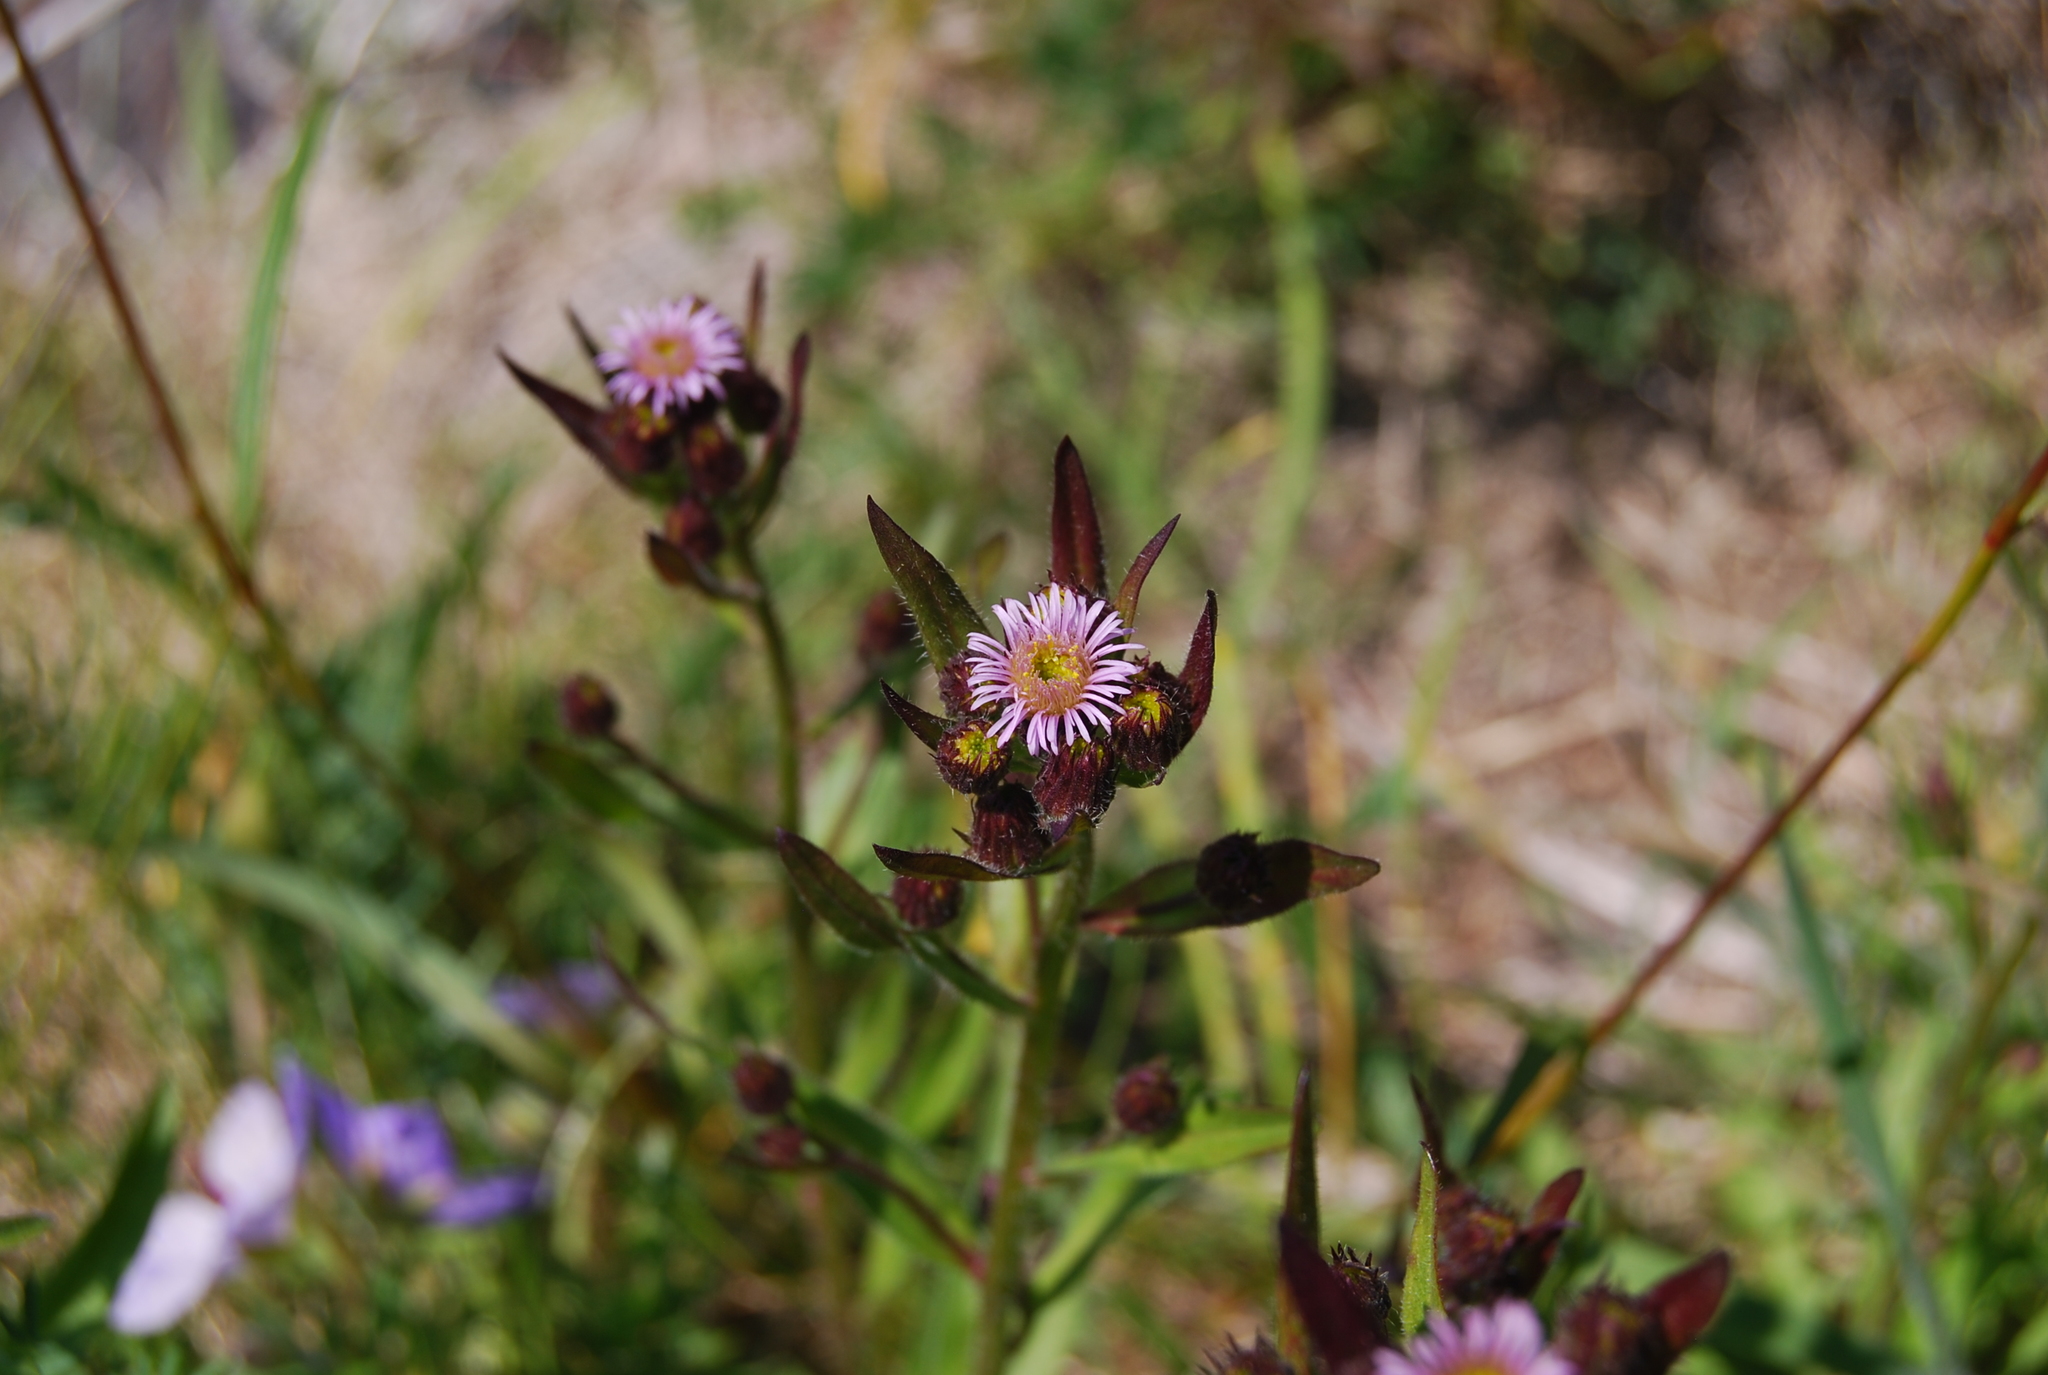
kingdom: Plantae
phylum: Tracheophyta
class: Magnoliopsida
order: Asterales
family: Asteraceae
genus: Erigeron
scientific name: Erigeron kamtschaticus
